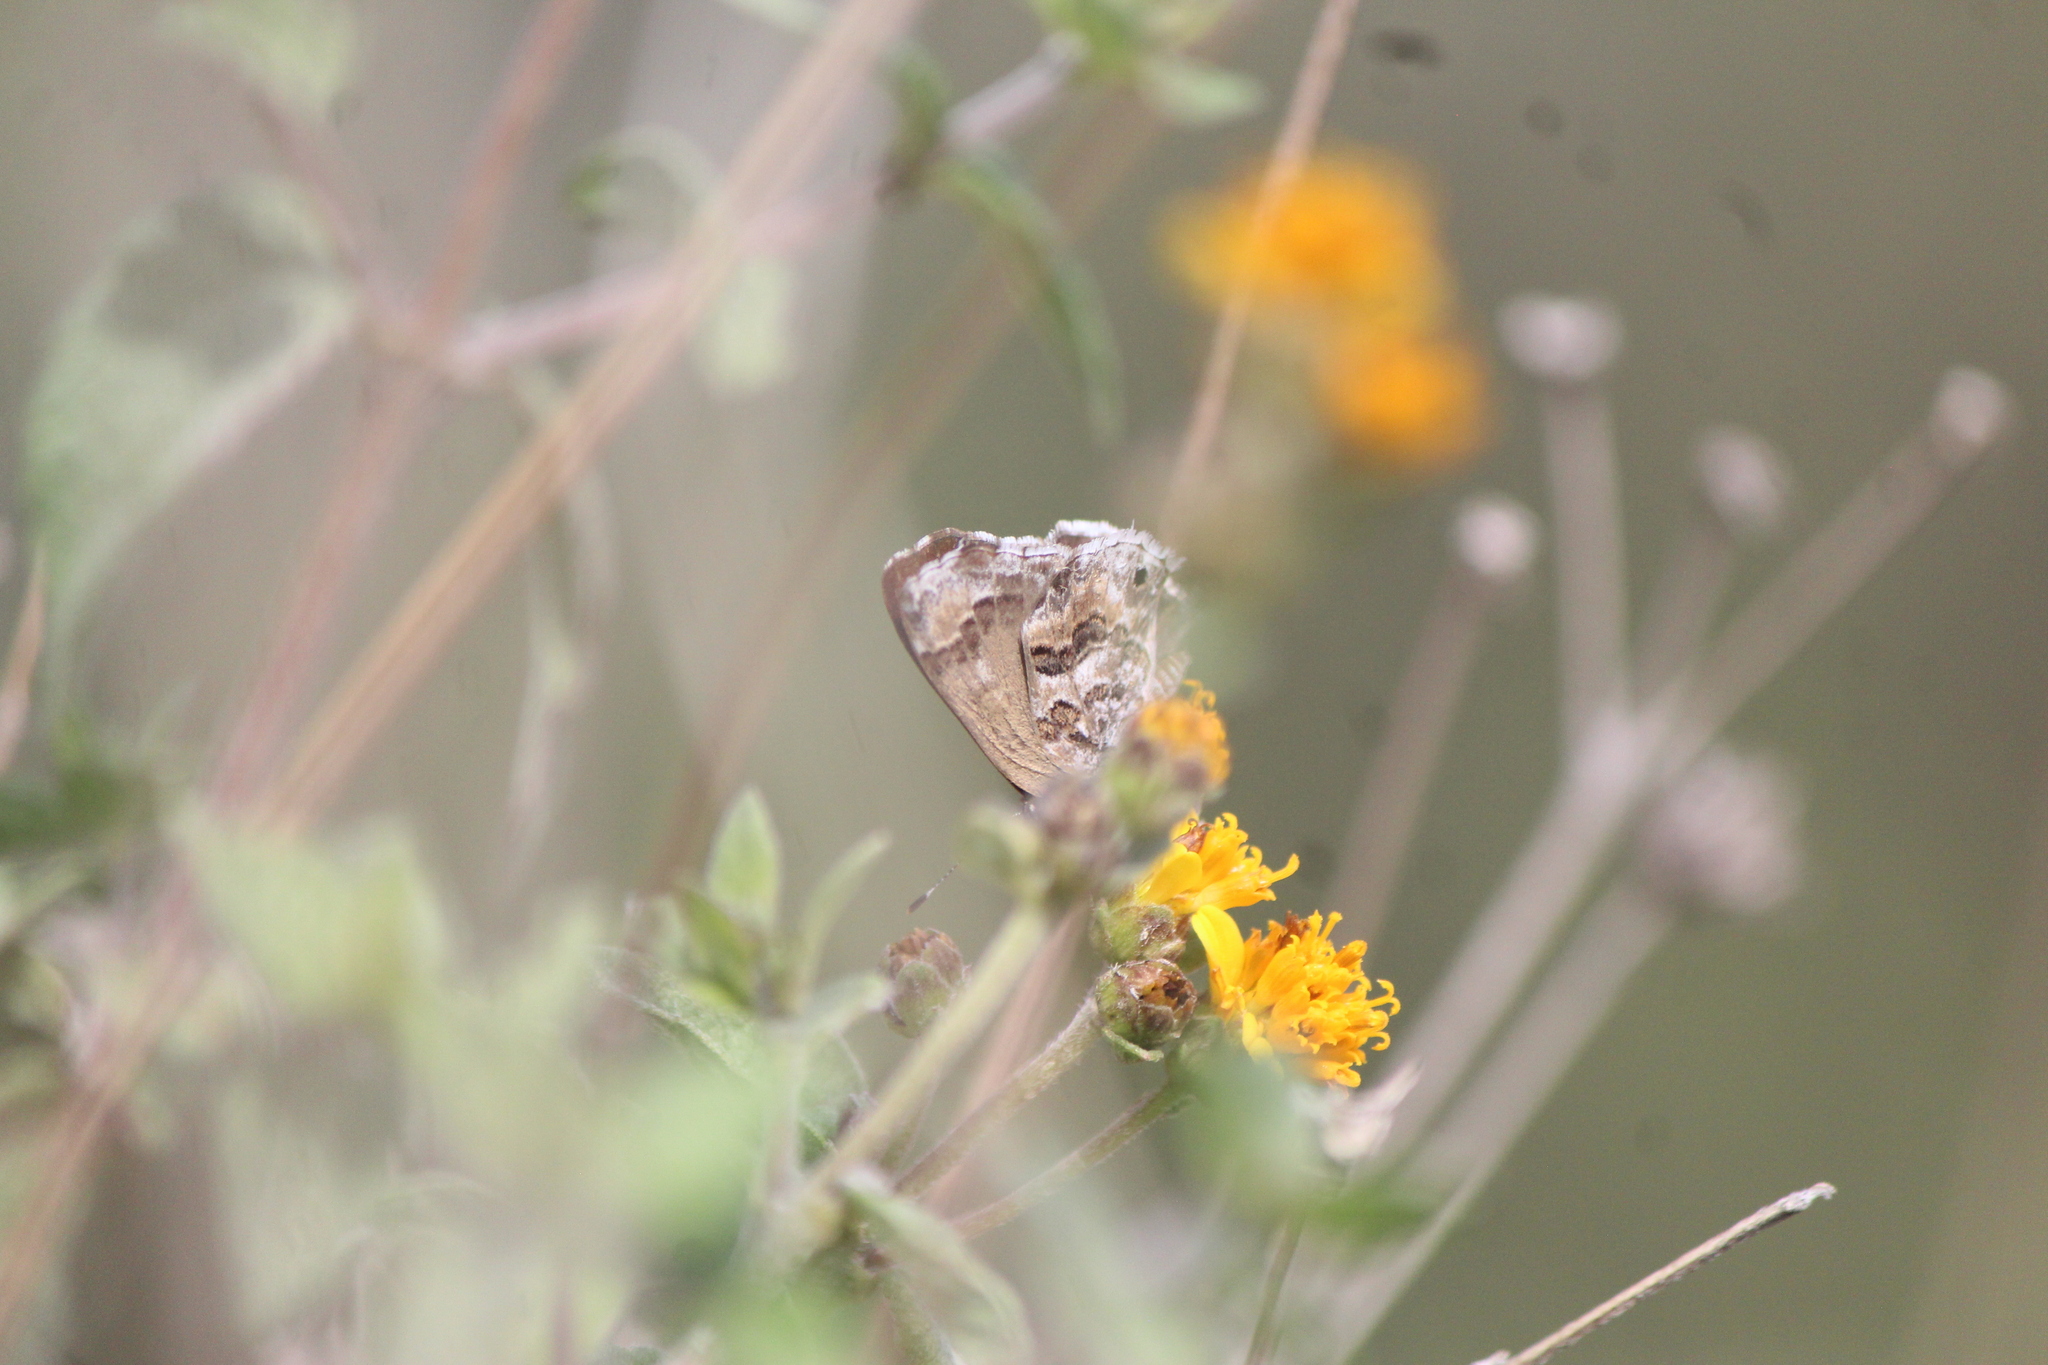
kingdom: Animalia
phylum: Arthropoda
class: Insecta
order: Lepidoptera
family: Lycaenidae
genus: Thecla
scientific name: Thecla cestri
